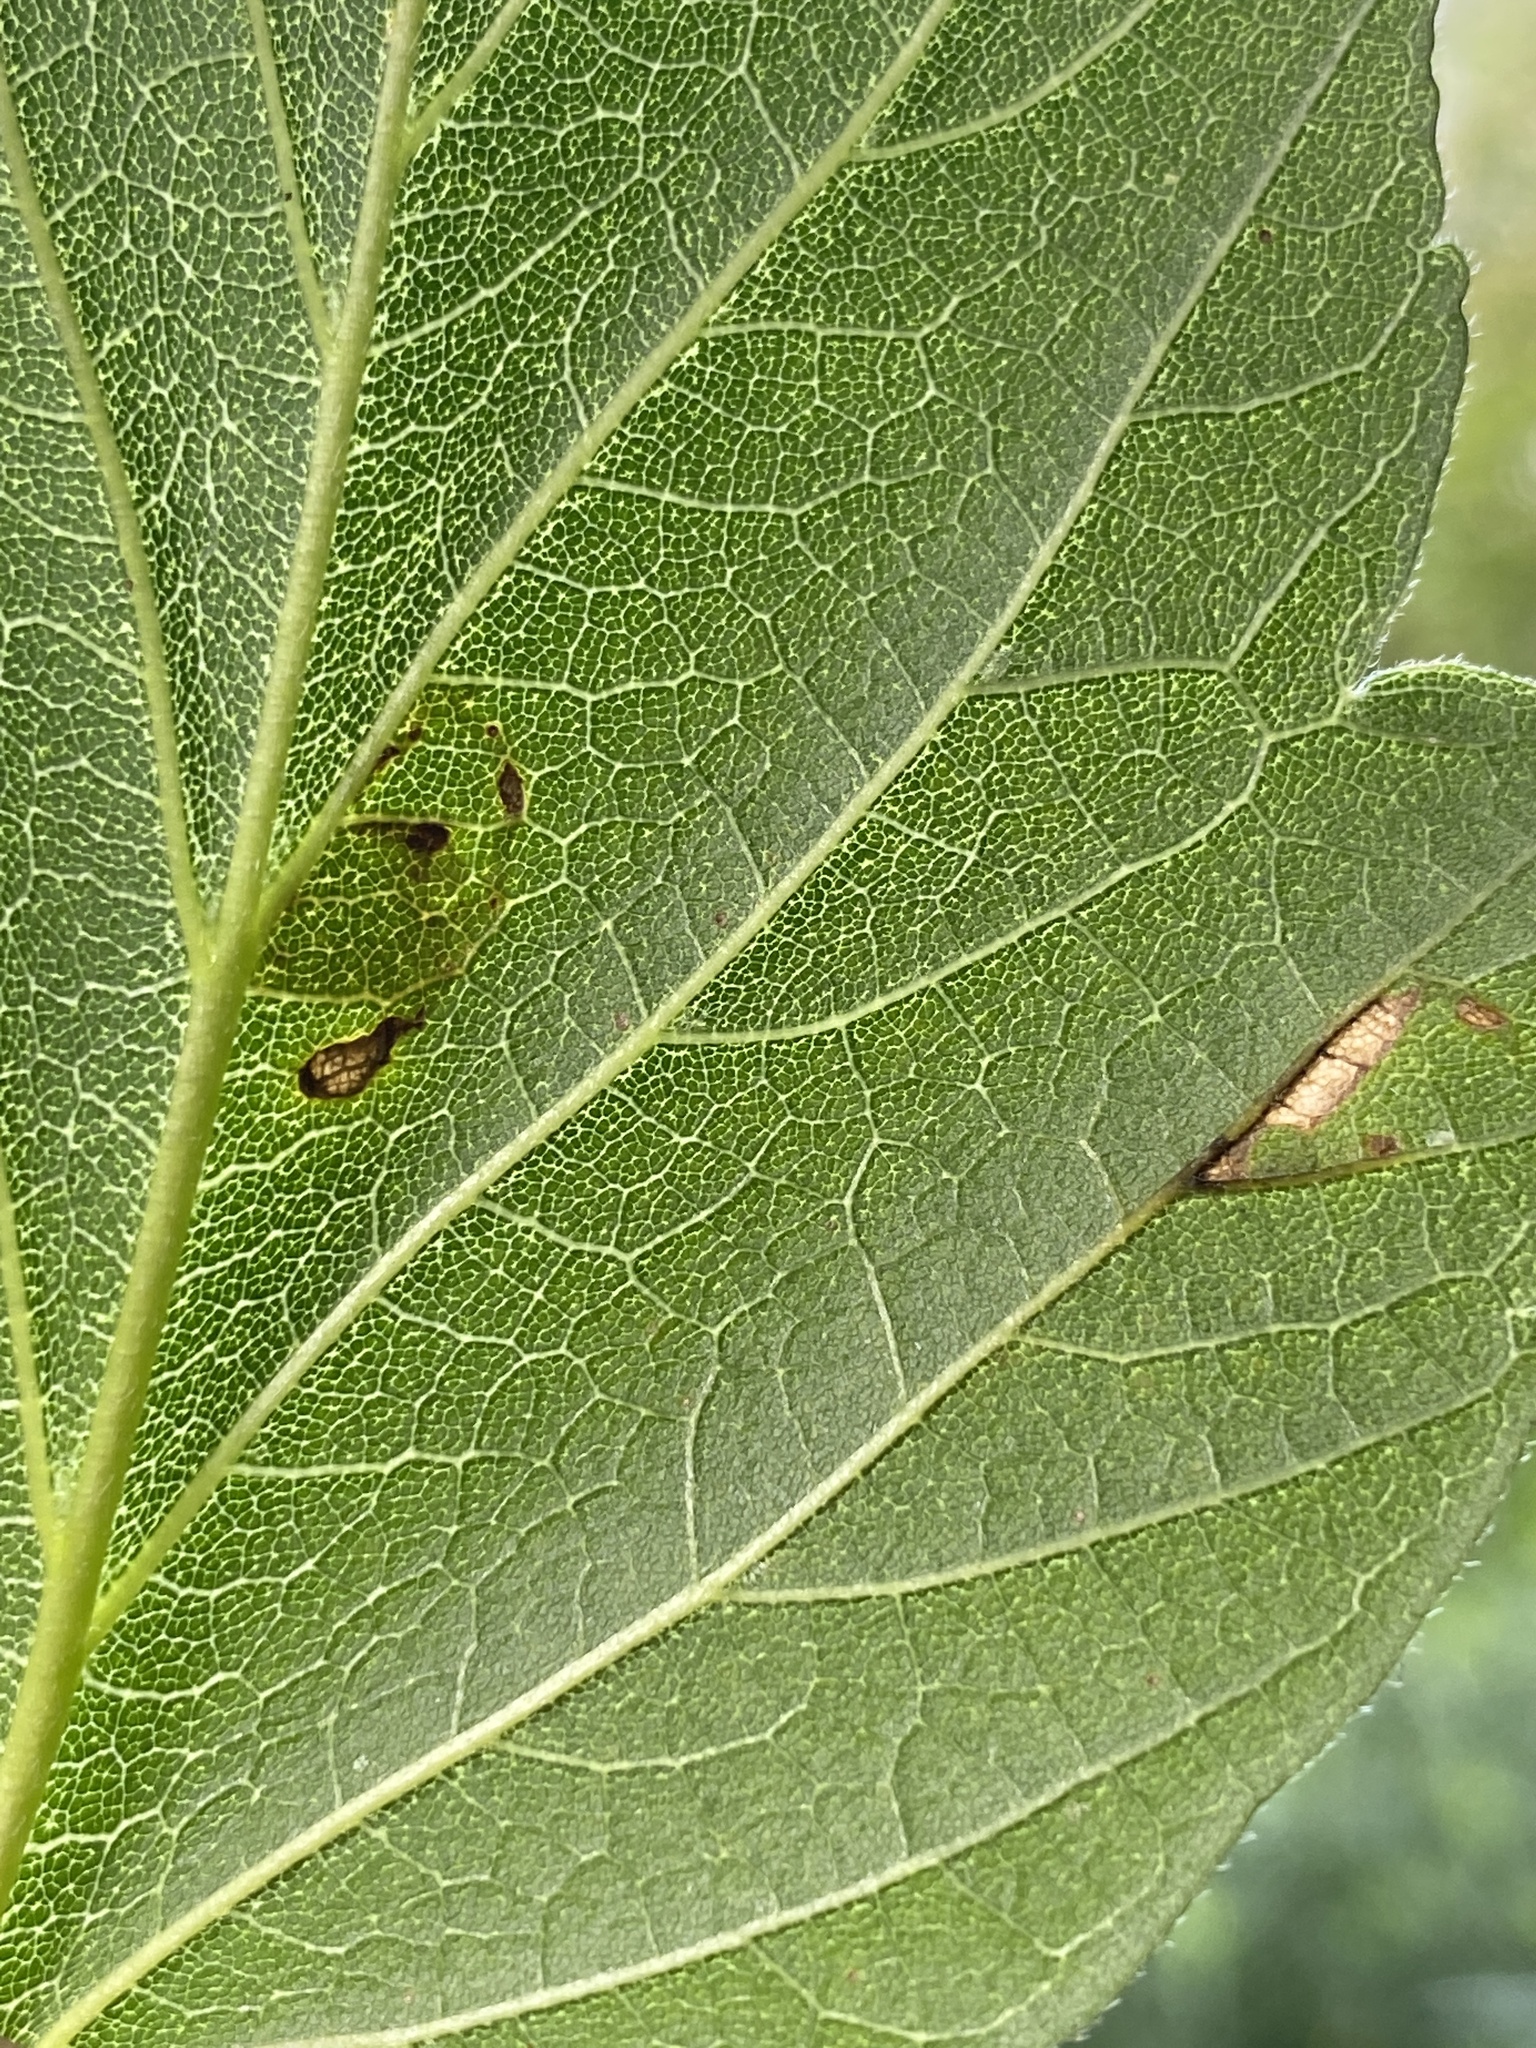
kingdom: Animalia
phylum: Arthropoda
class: Insecta
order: Lepidoptera
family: Gracillariidae
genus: Caloptilia
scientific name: Caloptilia negundella
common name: Leafminer
